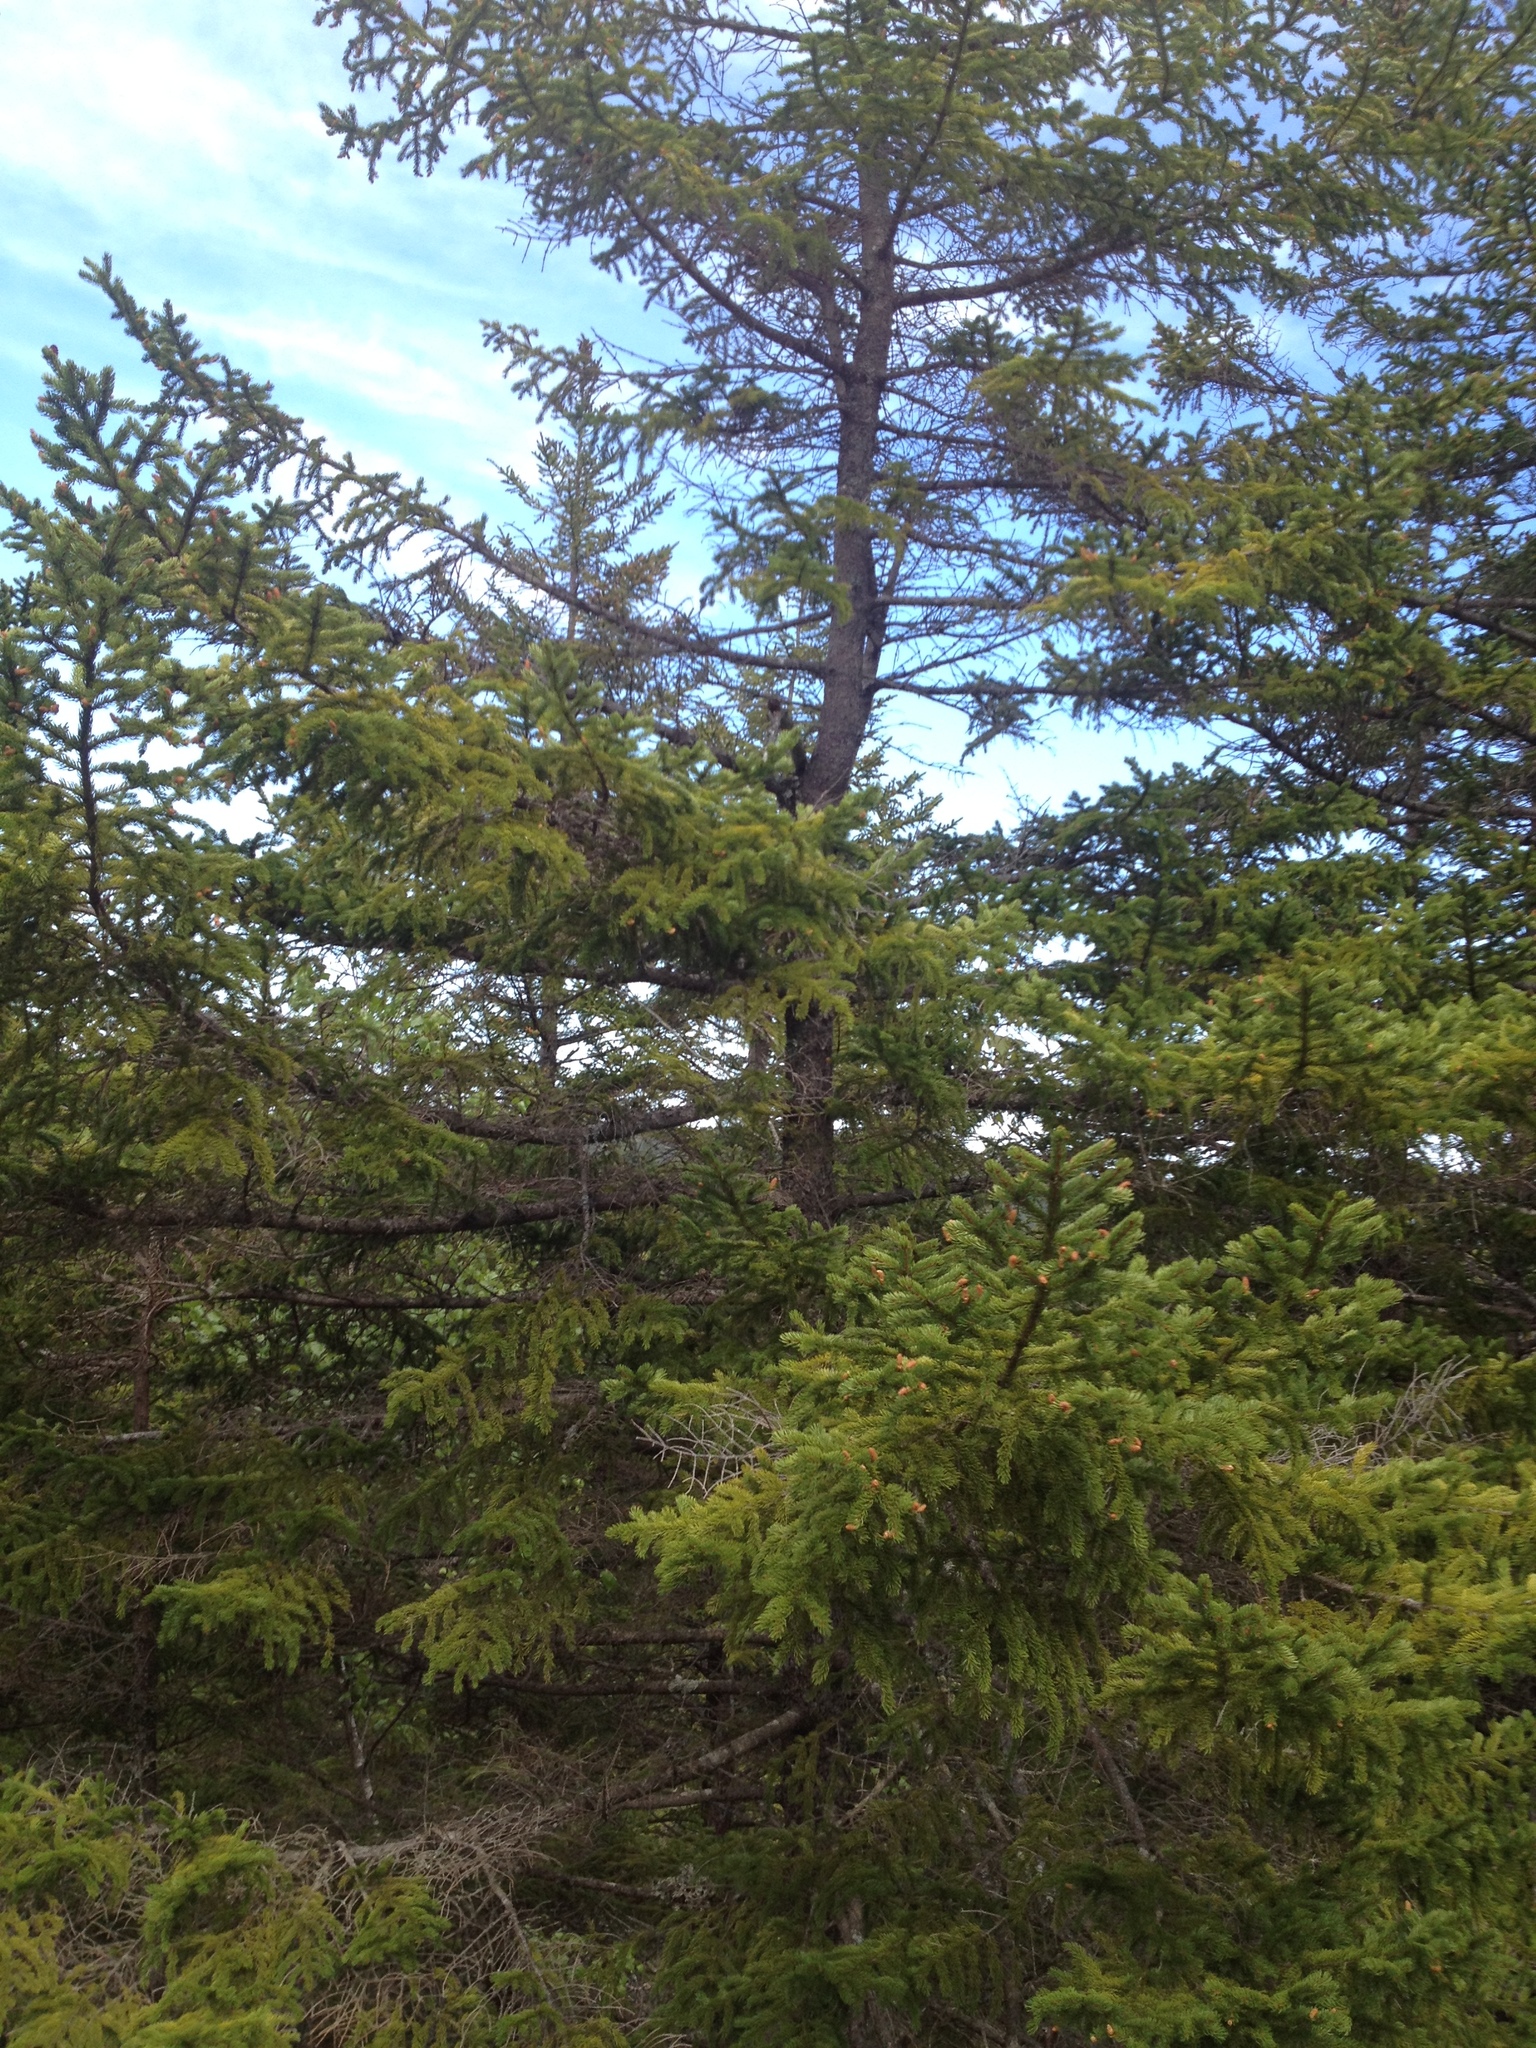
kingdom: Plantae
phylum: Tracheophyta
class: Pinopsida
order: Pinales
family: Pinaceae
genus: Picea
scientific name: Picea rubens
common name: Red spruce
